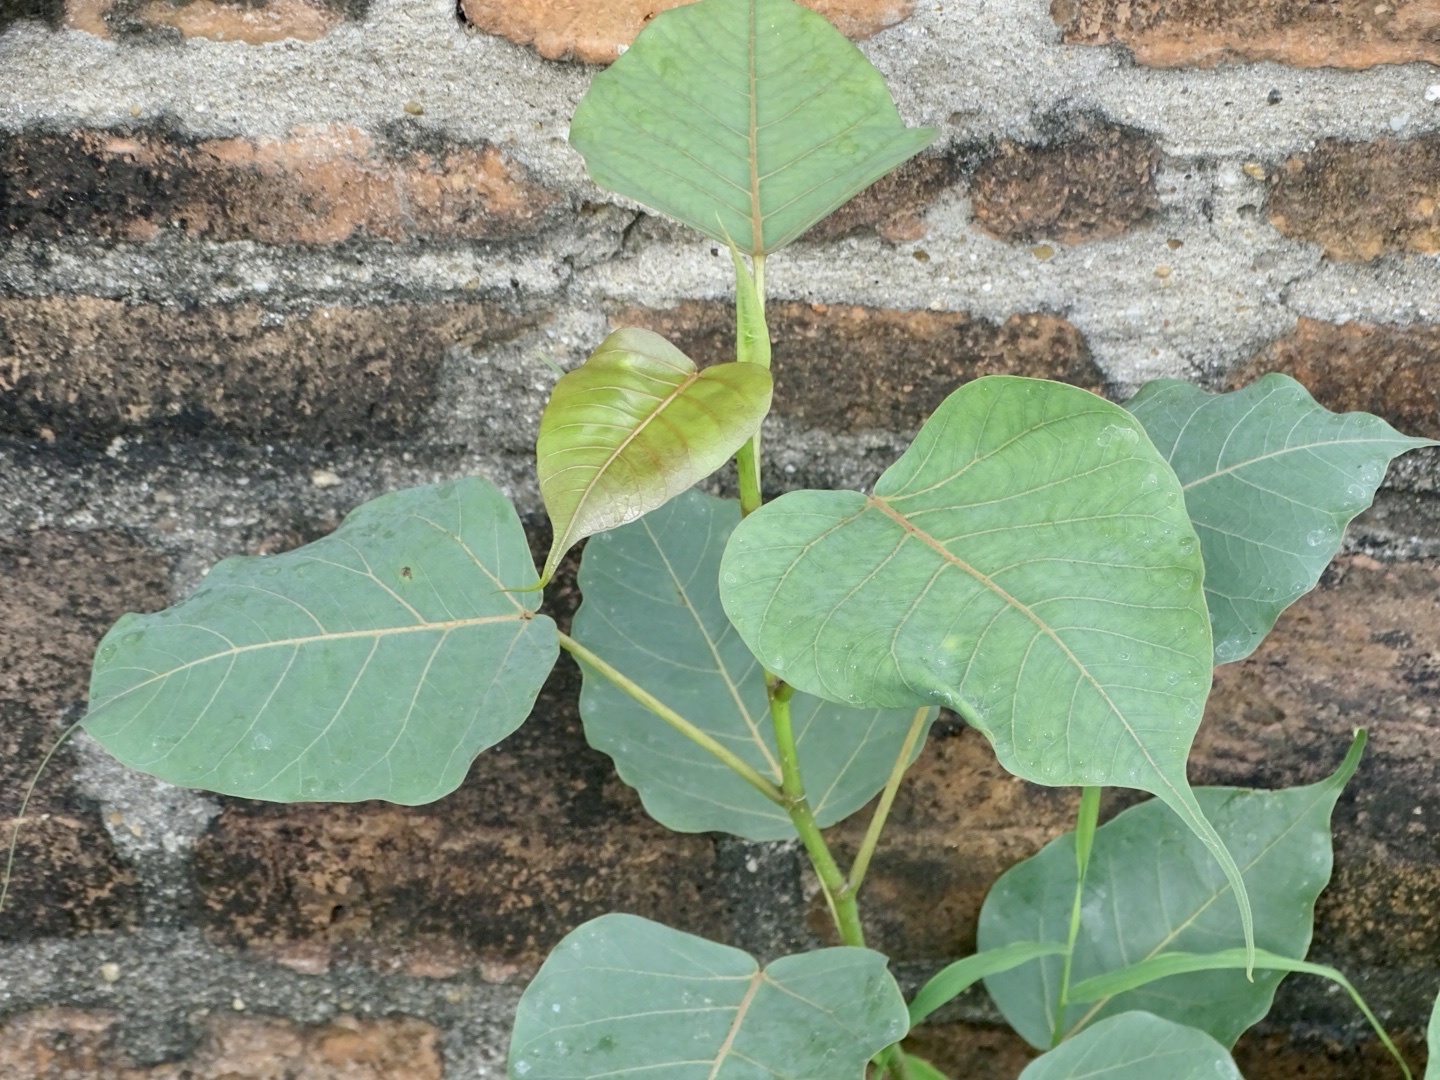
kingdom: Plantae
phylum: Tracheophyta
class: Magnoliopsida
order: Rosales
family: Moraceae
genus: Ficus
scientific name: Ficus religiosa
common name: Bodhi tree
